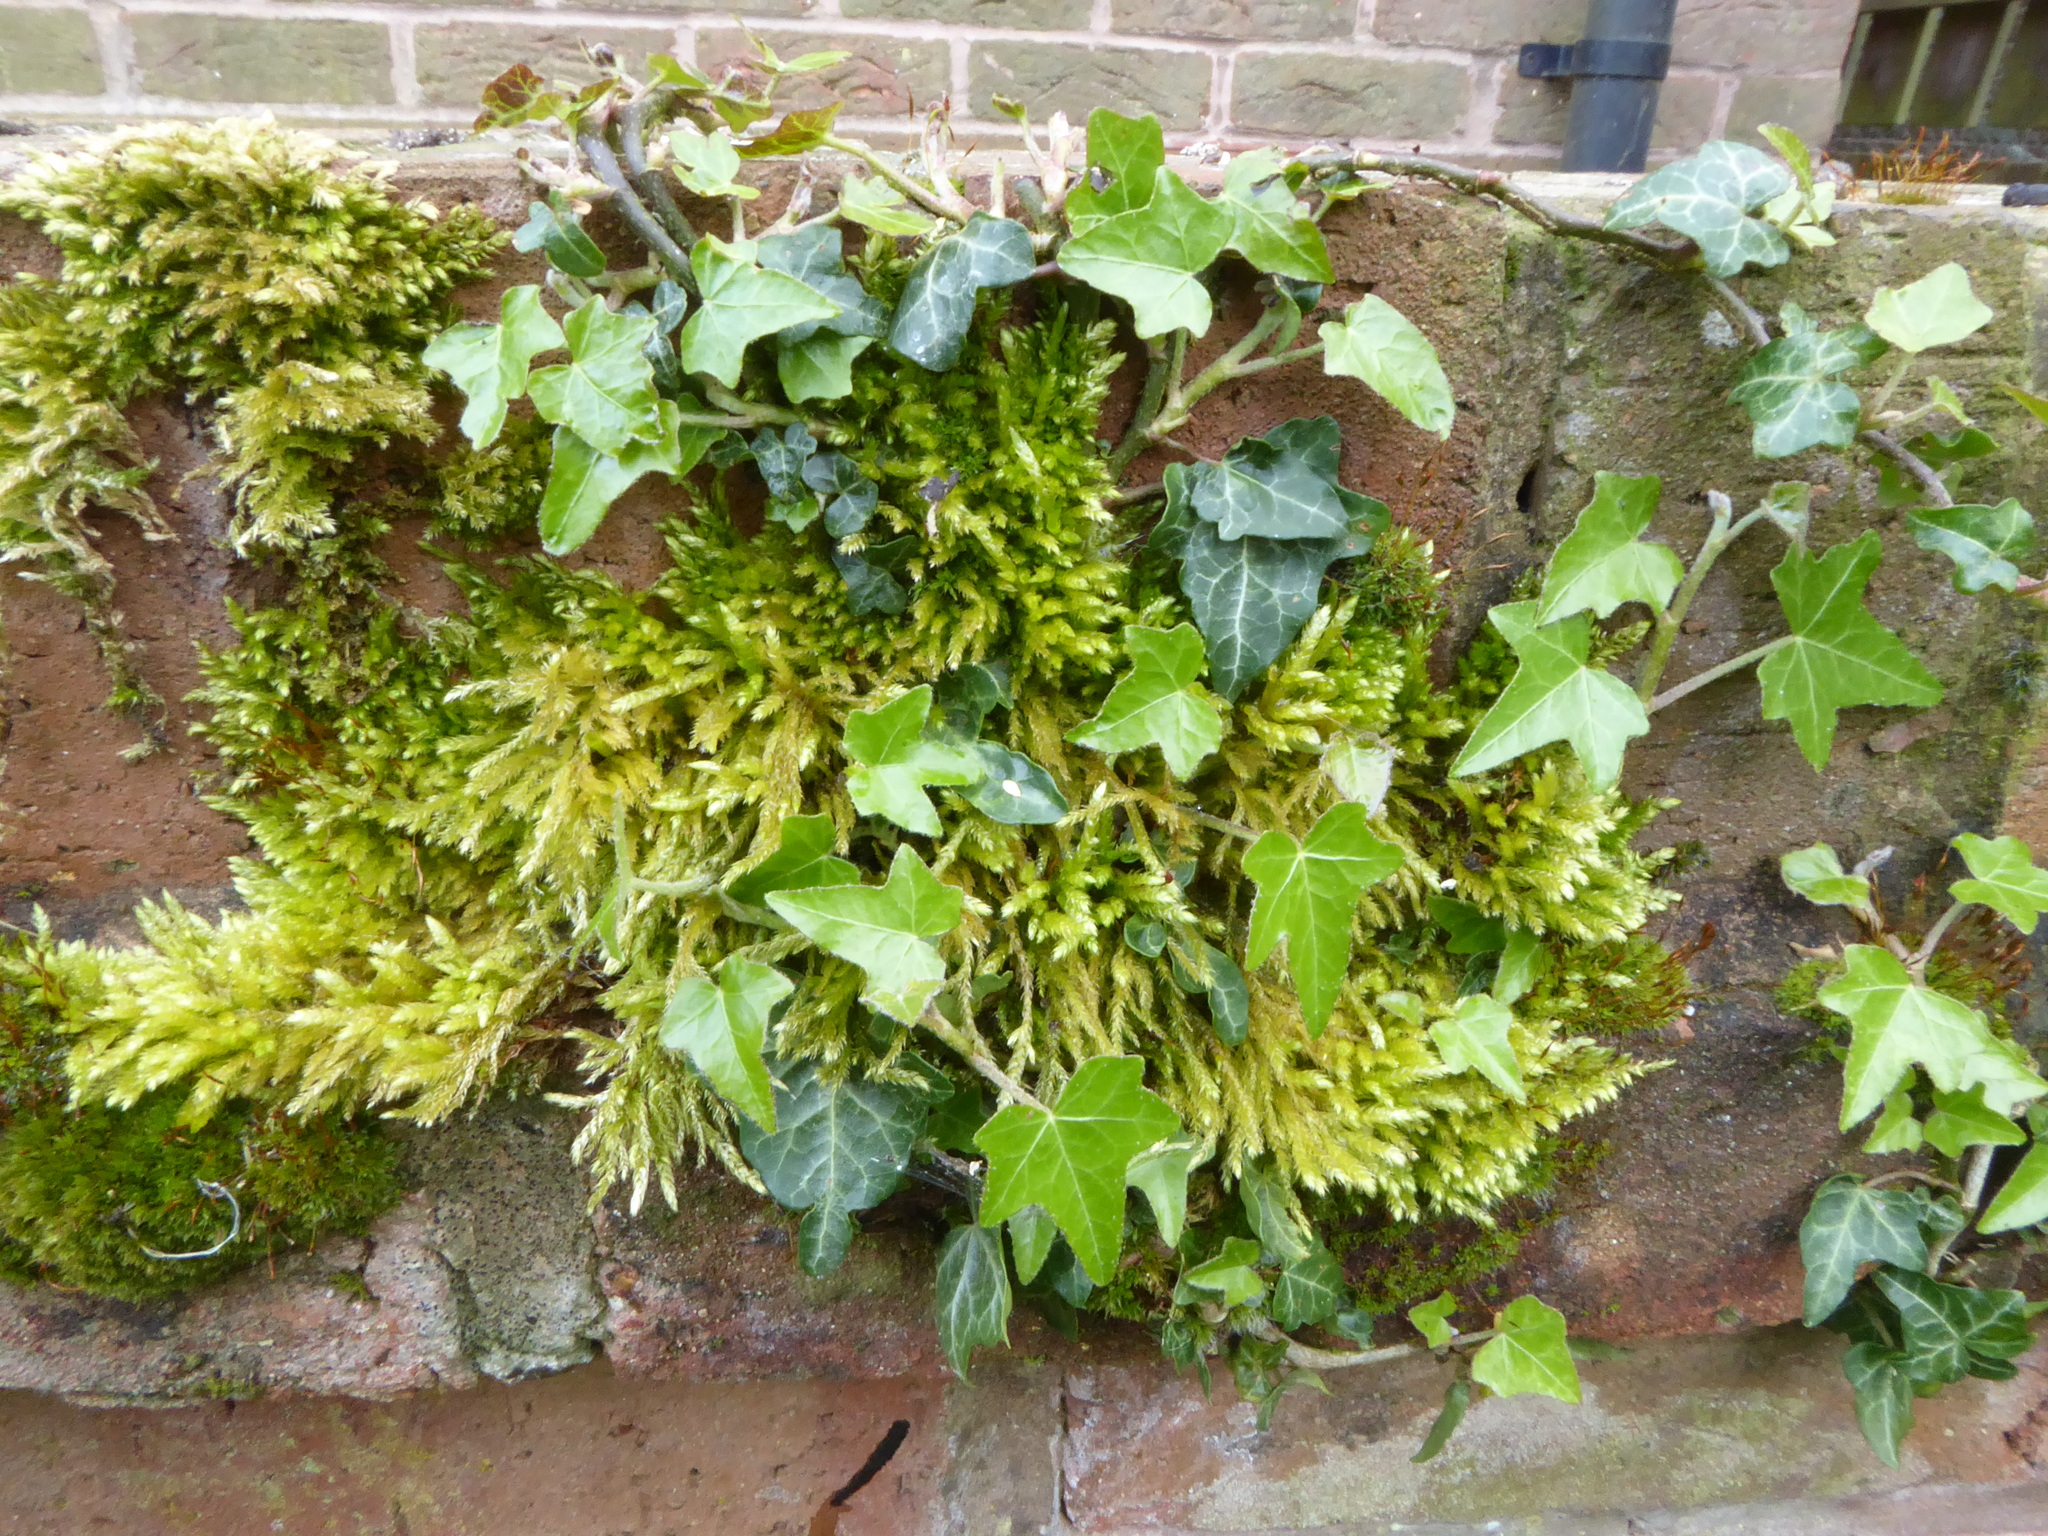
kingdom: Plantae
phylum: Tracheophyta
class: Magnoliopsida
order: Apiales
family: Araliaceae
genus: Hedera
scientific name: Hedera helix
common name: Ivy
